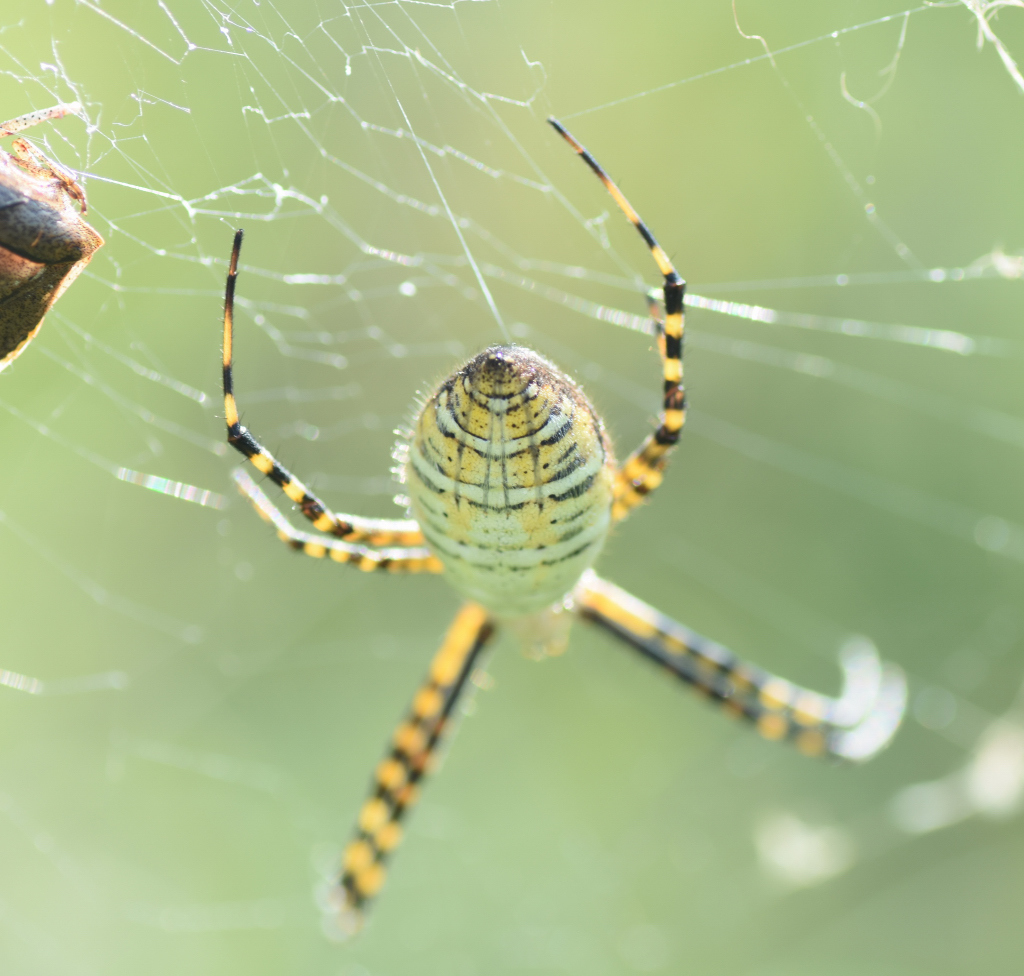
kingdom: Animalia
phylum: Arthropoda
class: Arachnida
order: Araneae
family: Araneidae
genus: Argiope
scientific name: Argiope trifasciata
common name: Banded garden spider
